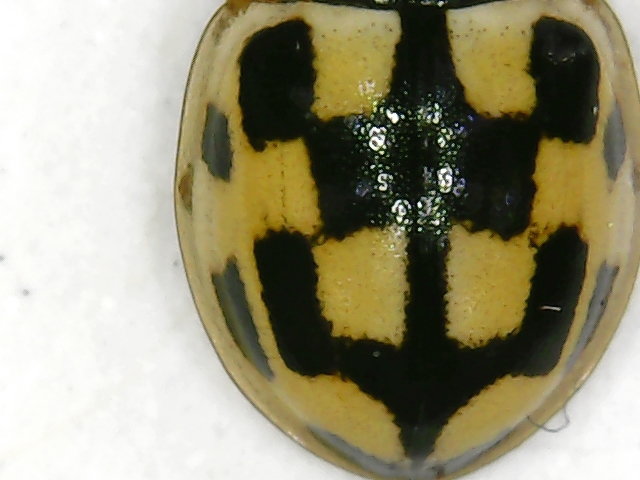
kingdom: Animalia
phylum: Arthropoda
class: Insecta
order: Coleoptera
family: Coccinellidae
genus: Propylaea
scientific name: Propylaea quatuordecimpunctata
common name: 14-spotted ladybird beetle
